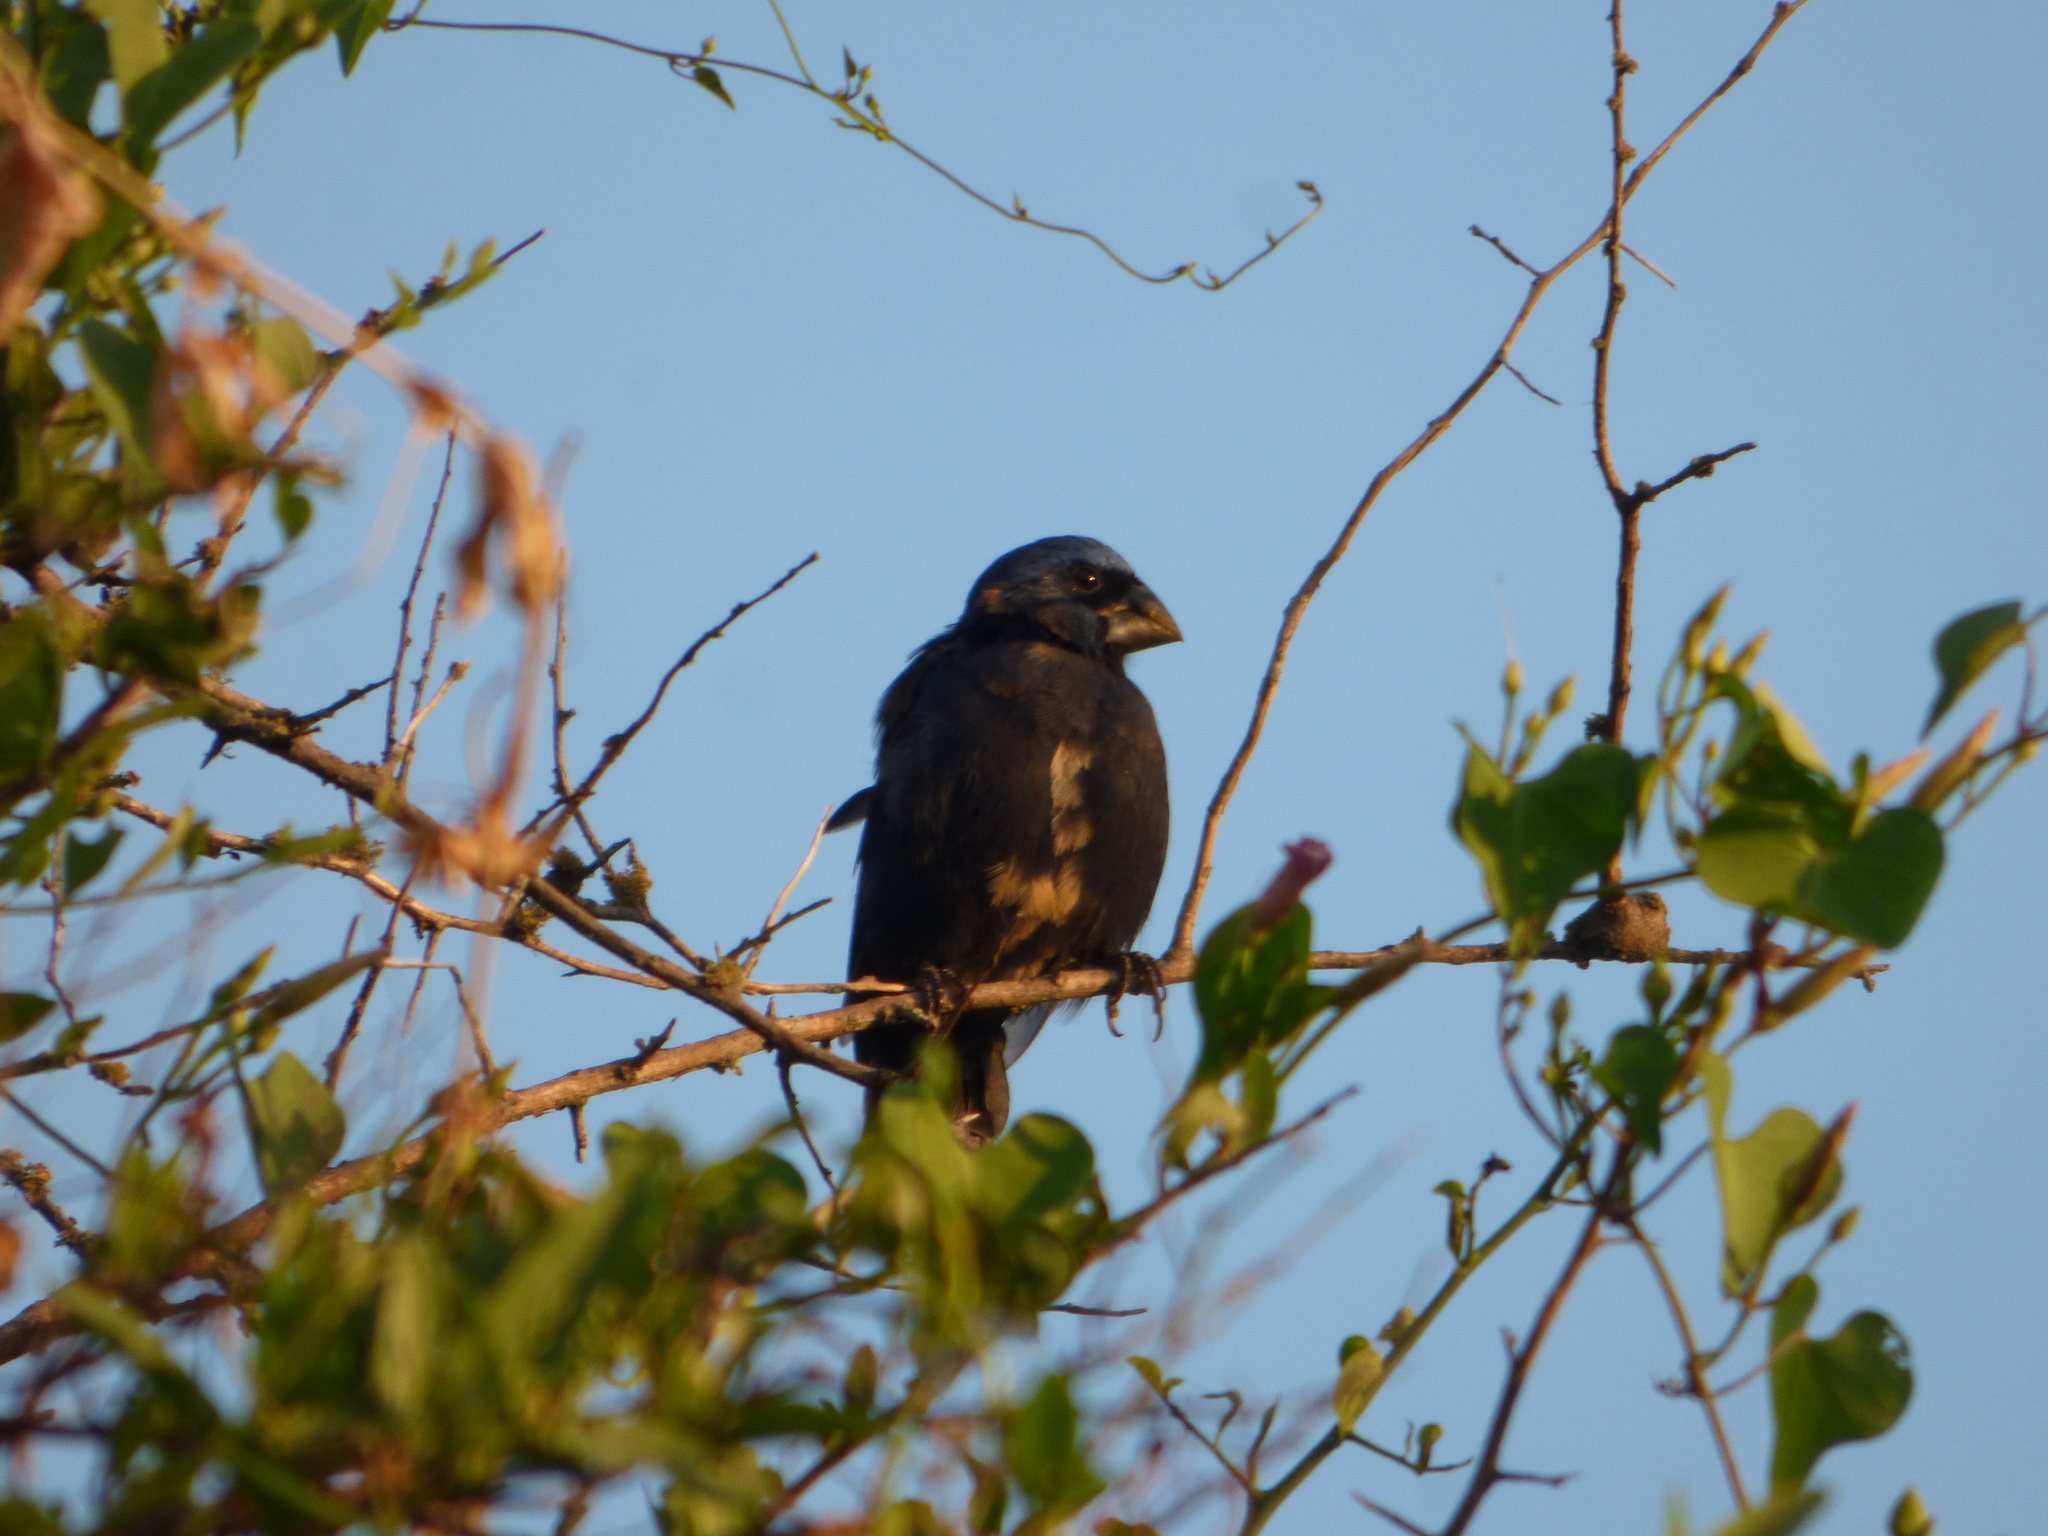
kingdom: Animalia
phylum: Chordata
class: Aves
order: Passeriformes
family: Cardinalidae
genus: Cyanoloxia
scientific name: Cyanoloxia brissonii
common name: Ultramarine grosbeak
